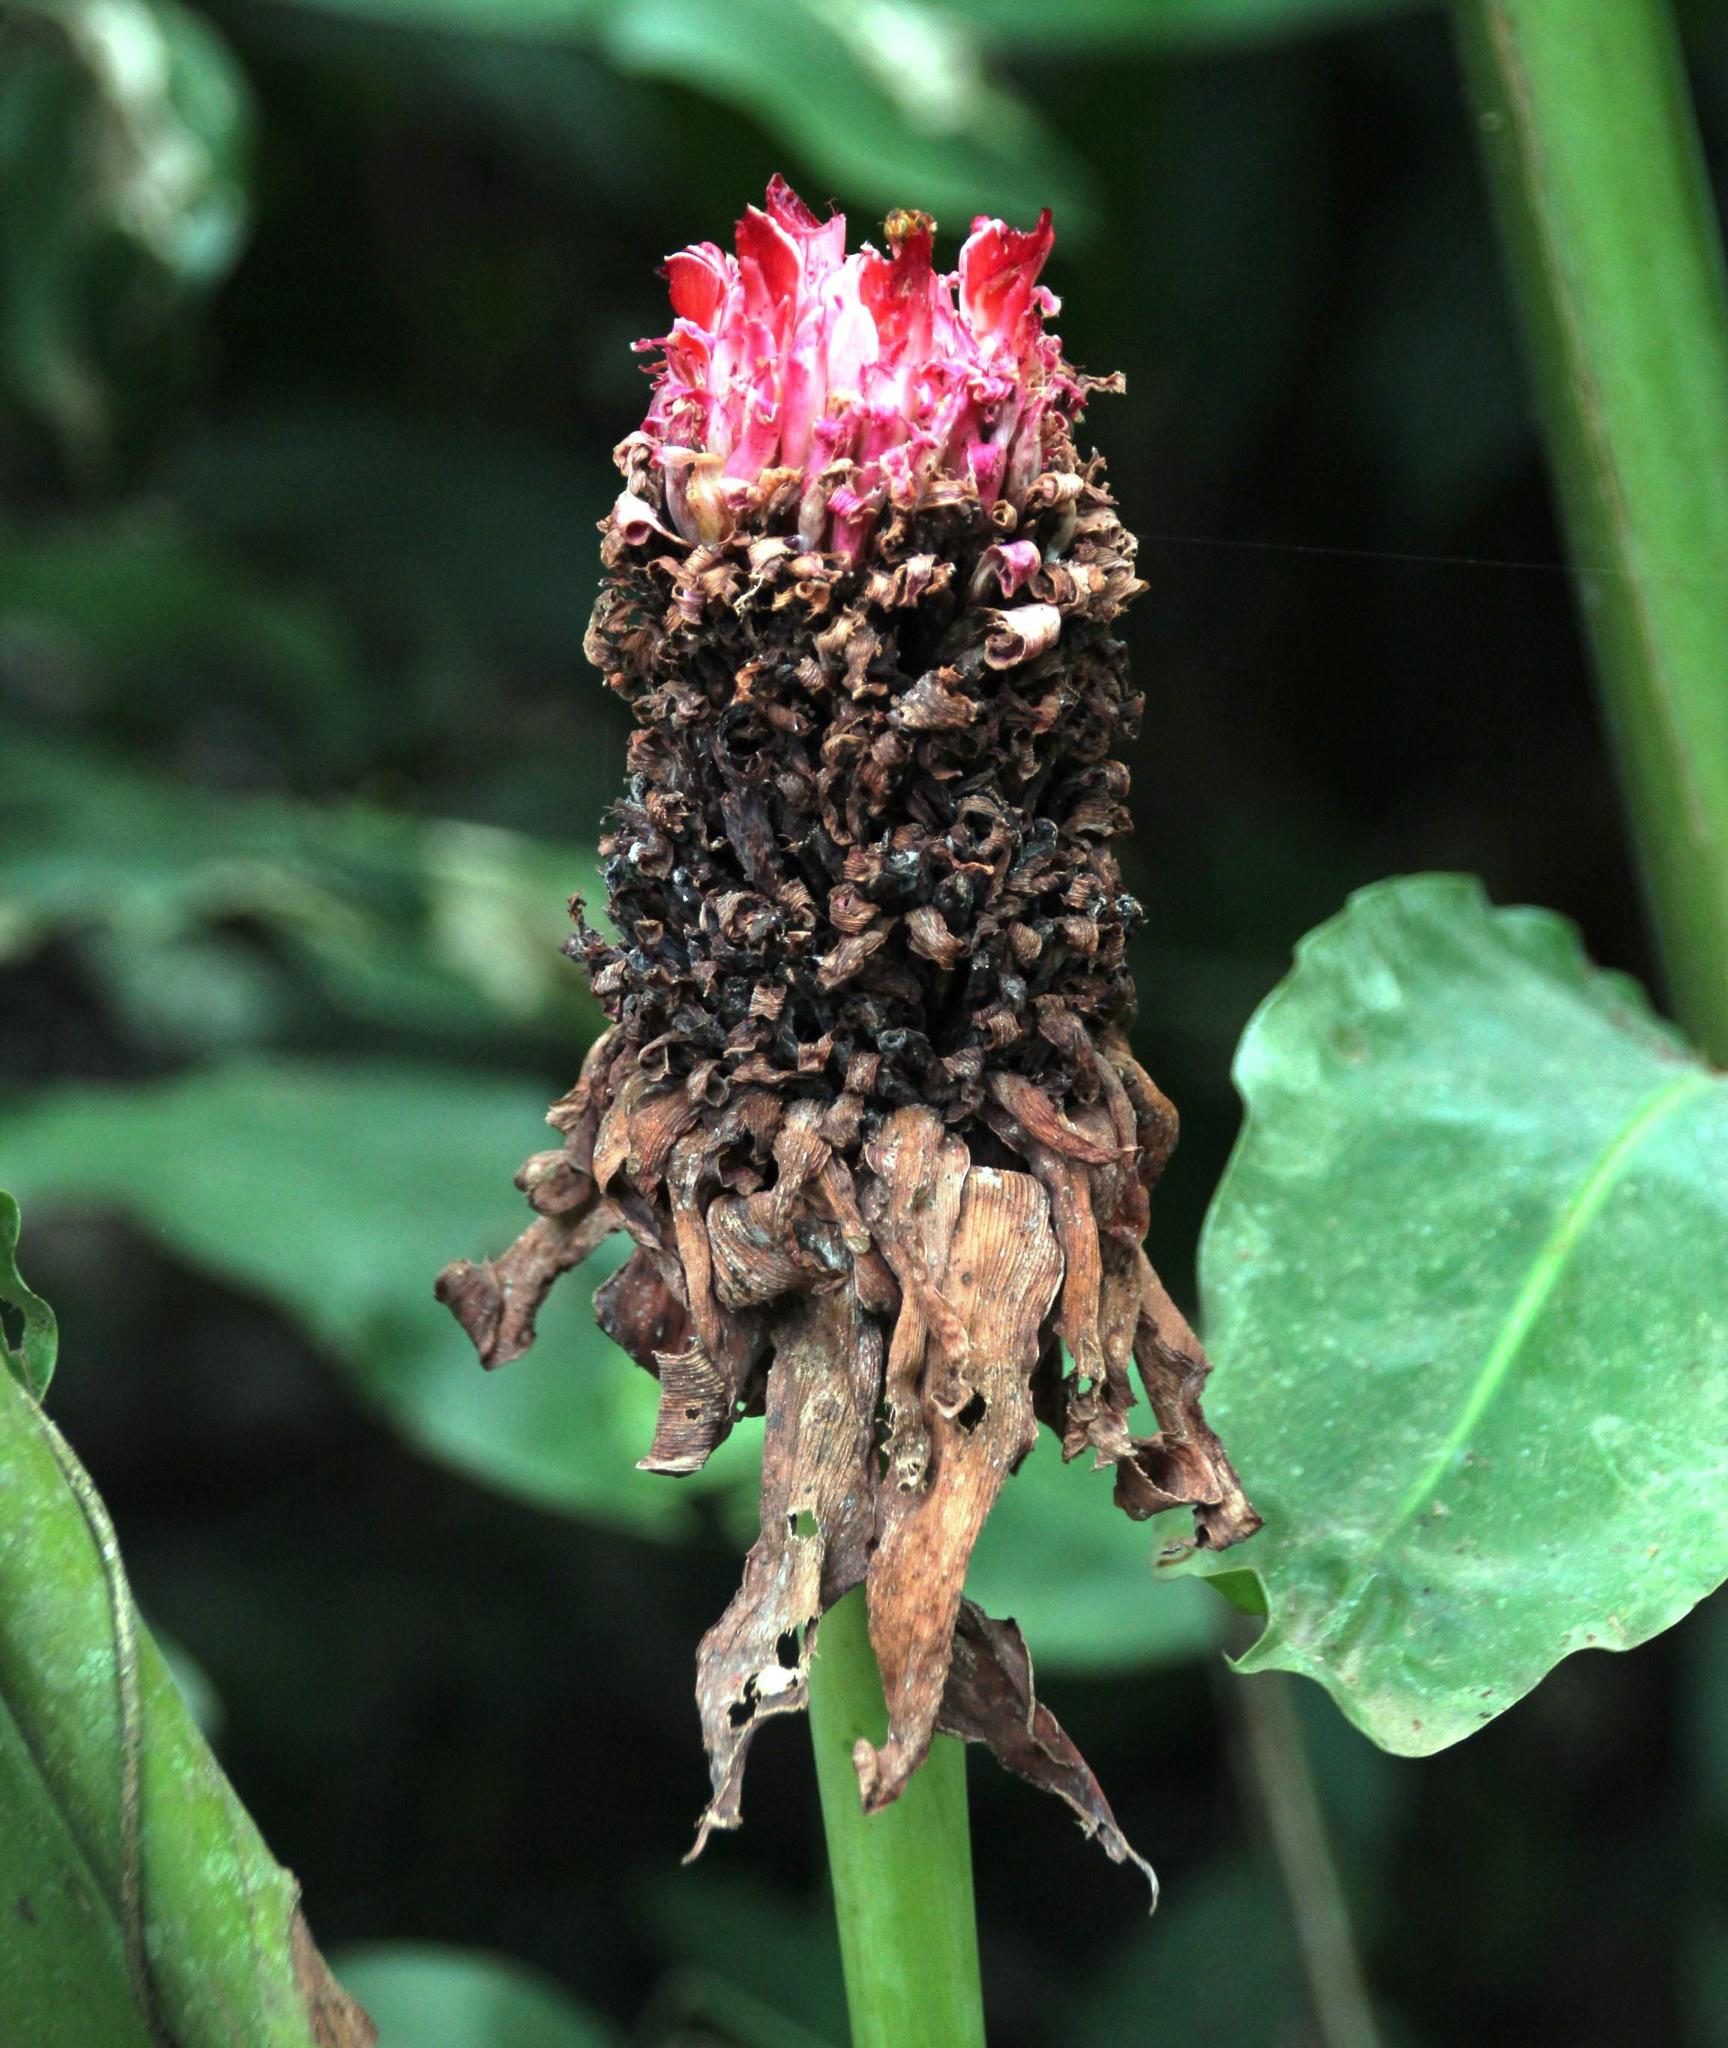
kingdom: Plantae
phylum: Tracheophyta
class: Liliopsida
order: Zingiberales
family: Zingiberaceae
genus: Etlingera
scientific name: Etlingera elatior
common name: Philippine waxflower
